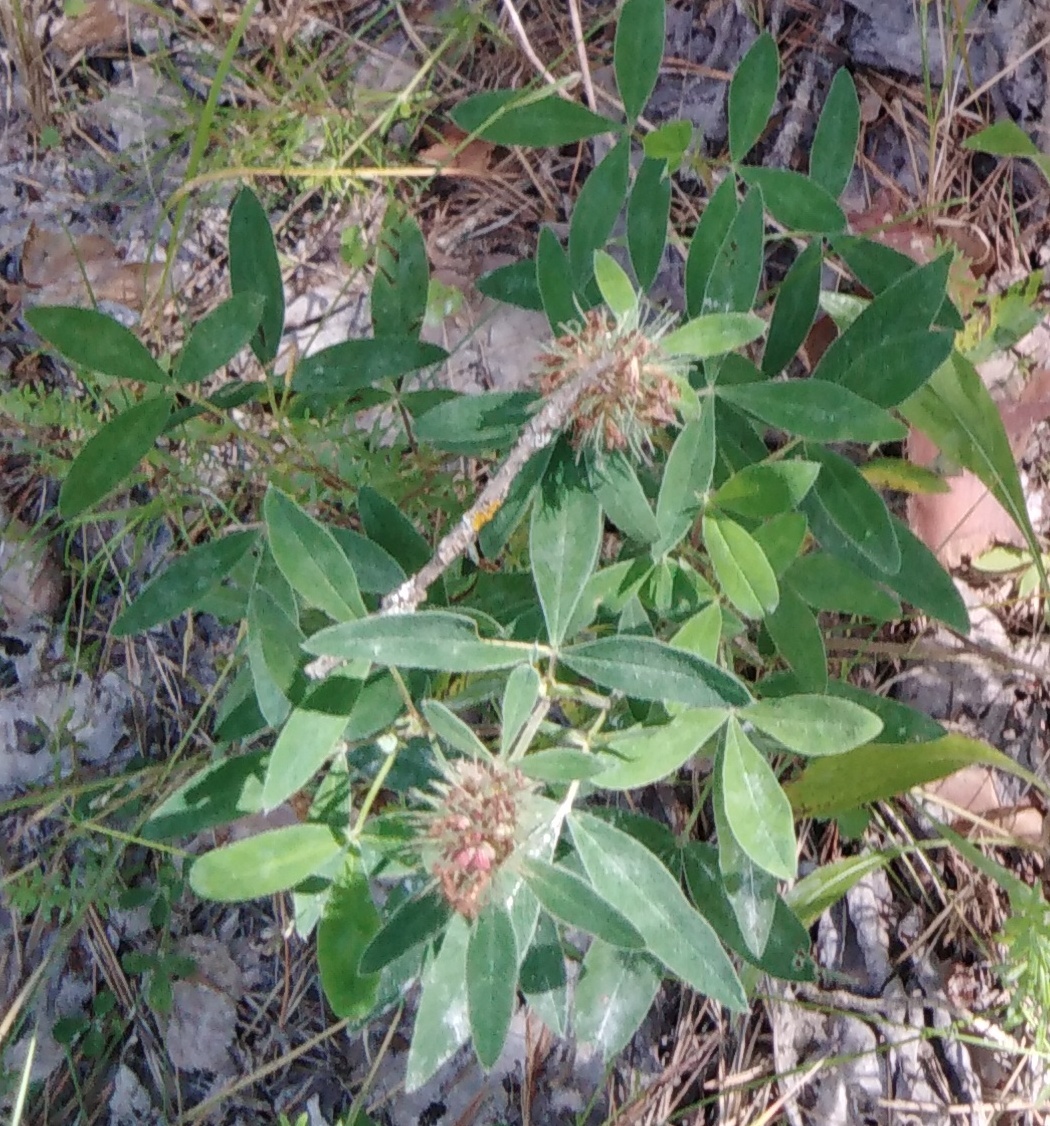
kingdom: Plantae
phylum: Tracheophyta
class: Magnoliopsida
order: Fabales
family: Fabaceae
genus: Trifolium
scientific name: Trifolium medium
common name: Zigzag clover
